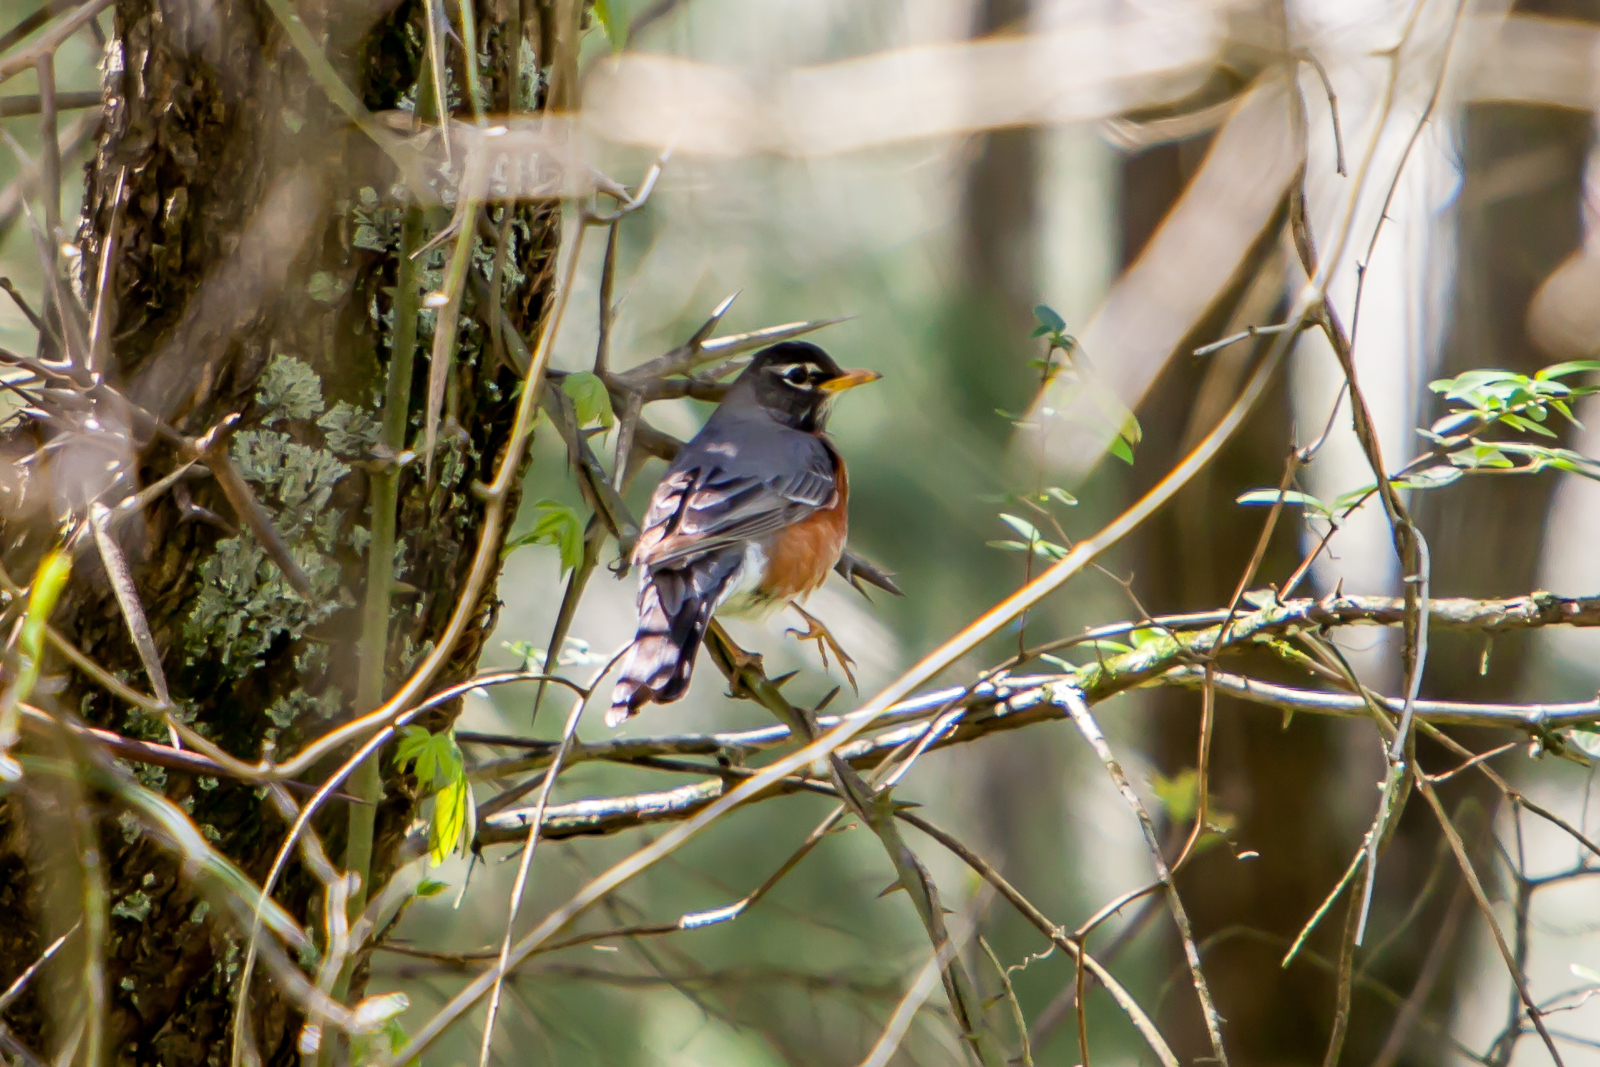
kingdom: Animalia
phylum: Chordata
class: Aves
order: Passeriformes
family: Turdidae
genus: Turdus
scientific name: Turdus migratorius
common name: American robin
